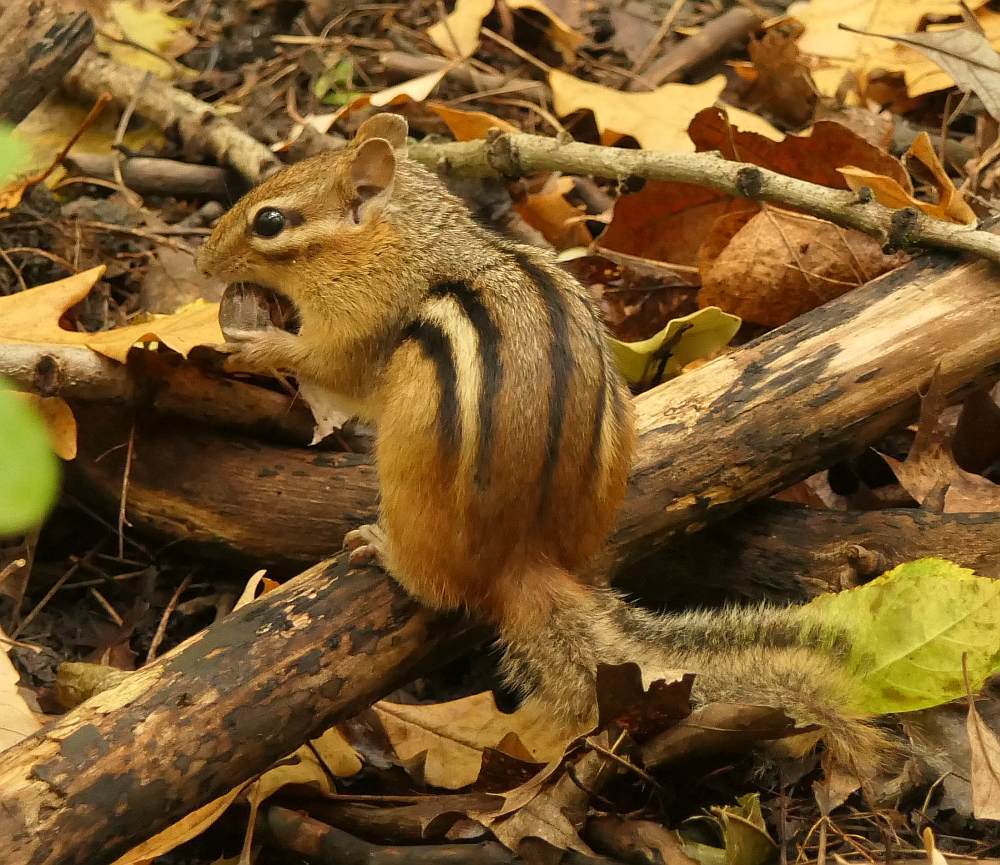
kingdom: Animalia
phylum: Chordata
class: Mammalia
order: Rodentia
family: Sciuridae
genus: Tamias
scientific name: Tamias striatus
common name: Eastern chipmunk
